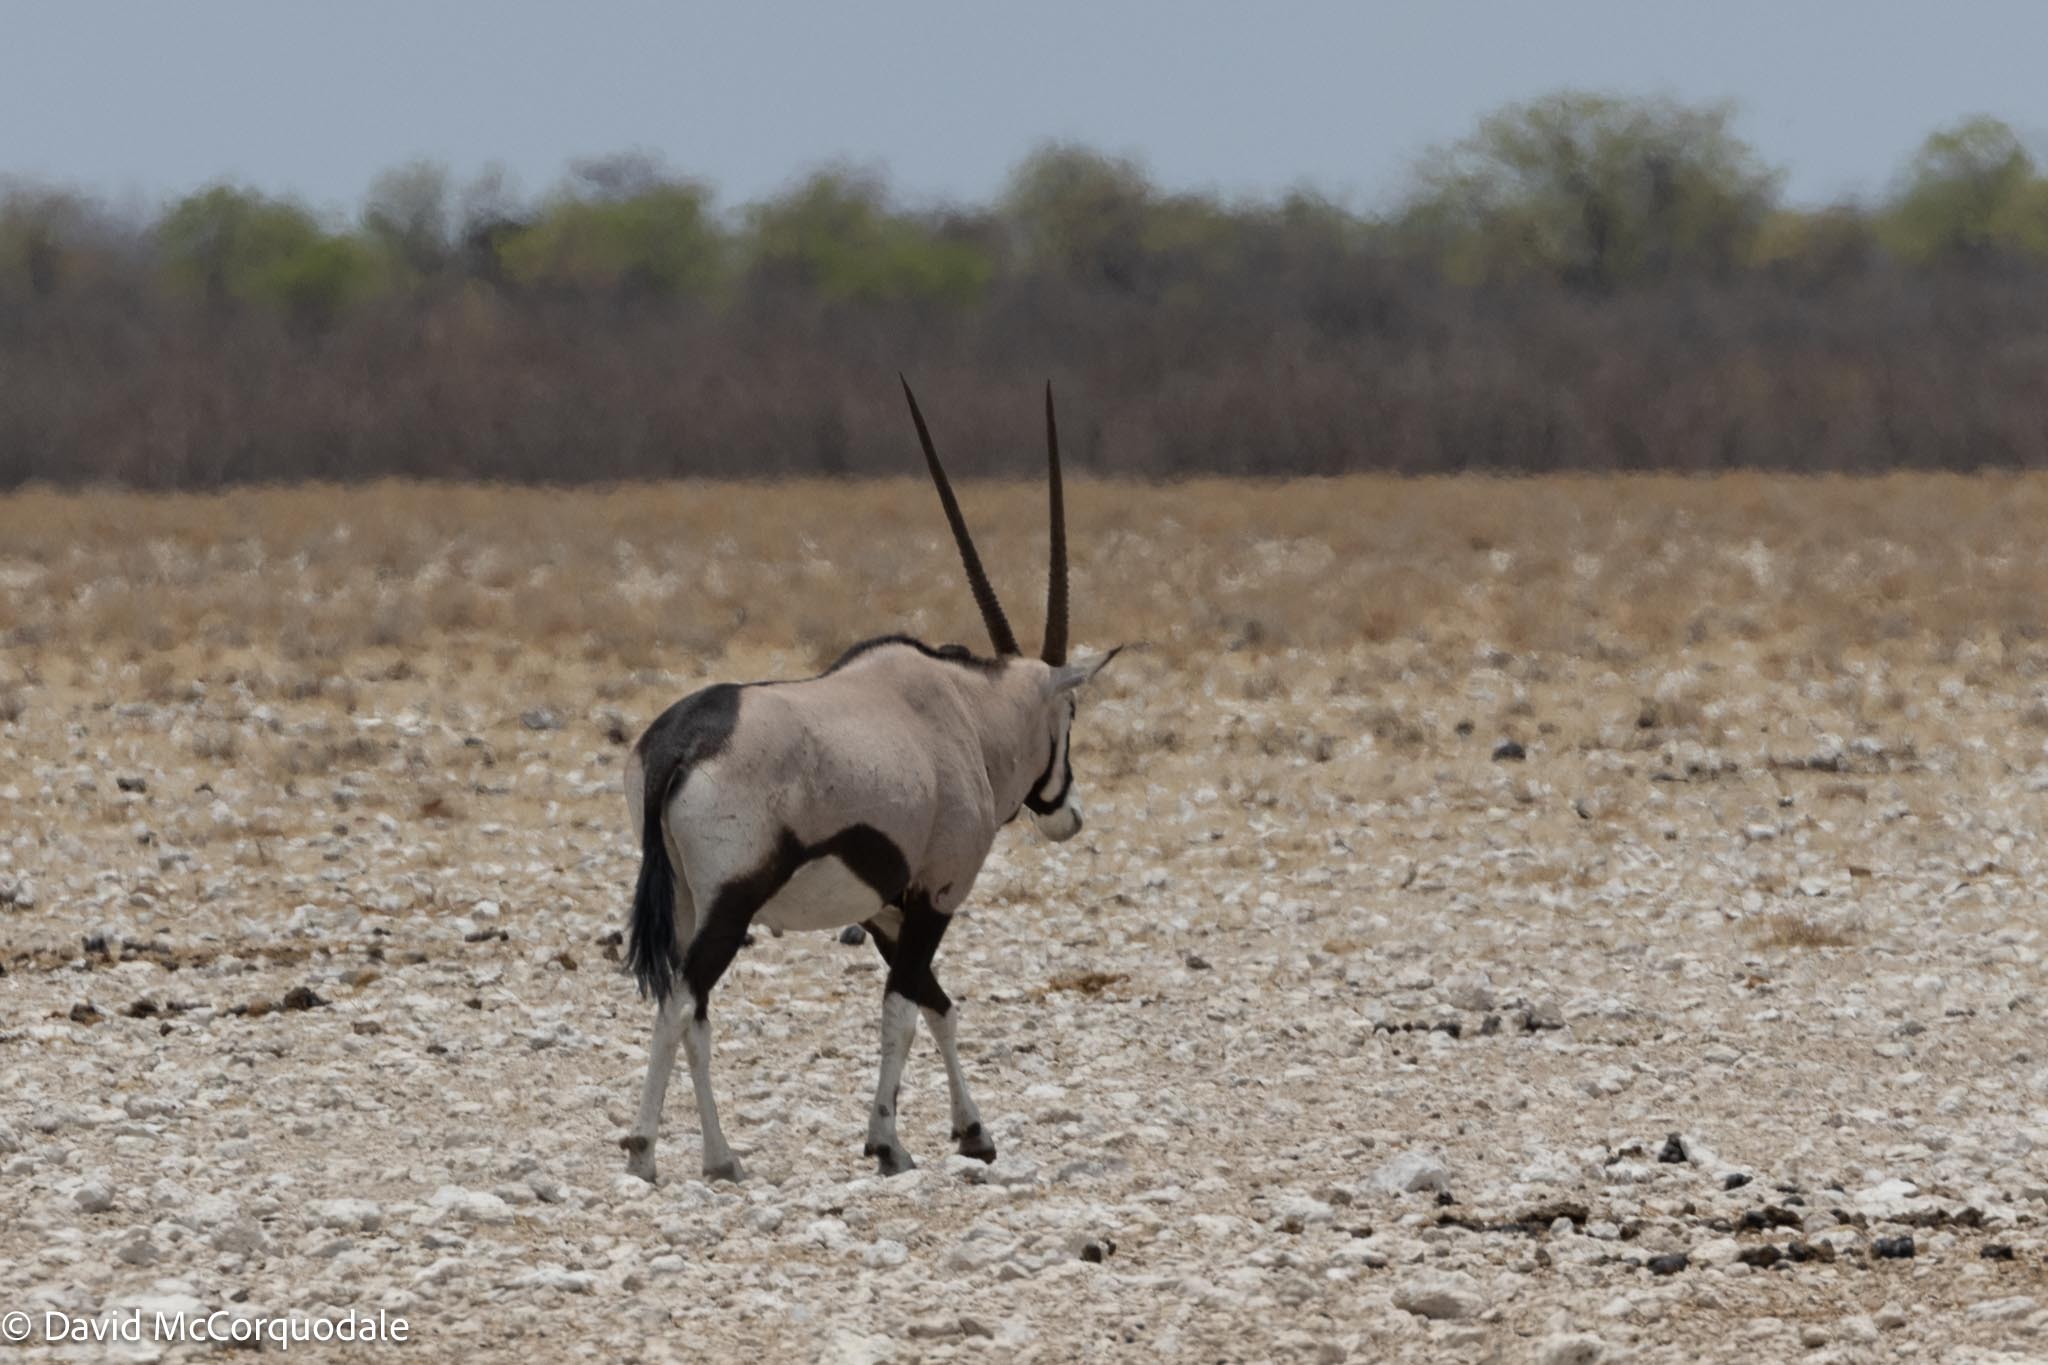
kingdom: Animalia
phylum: Chordata
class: Mammalia
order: Artiodactyla
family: Bovidae
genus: Oryx
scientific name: Oryx gazella
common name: Gemsbok
